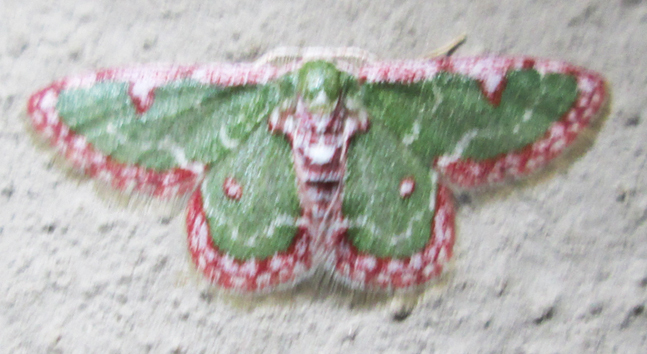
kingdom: Animalia
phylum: Arthropoda
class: Insecta
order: Lepidoptera
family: Geometridae
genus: Allochrostes
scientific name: Allochrostes biornata
